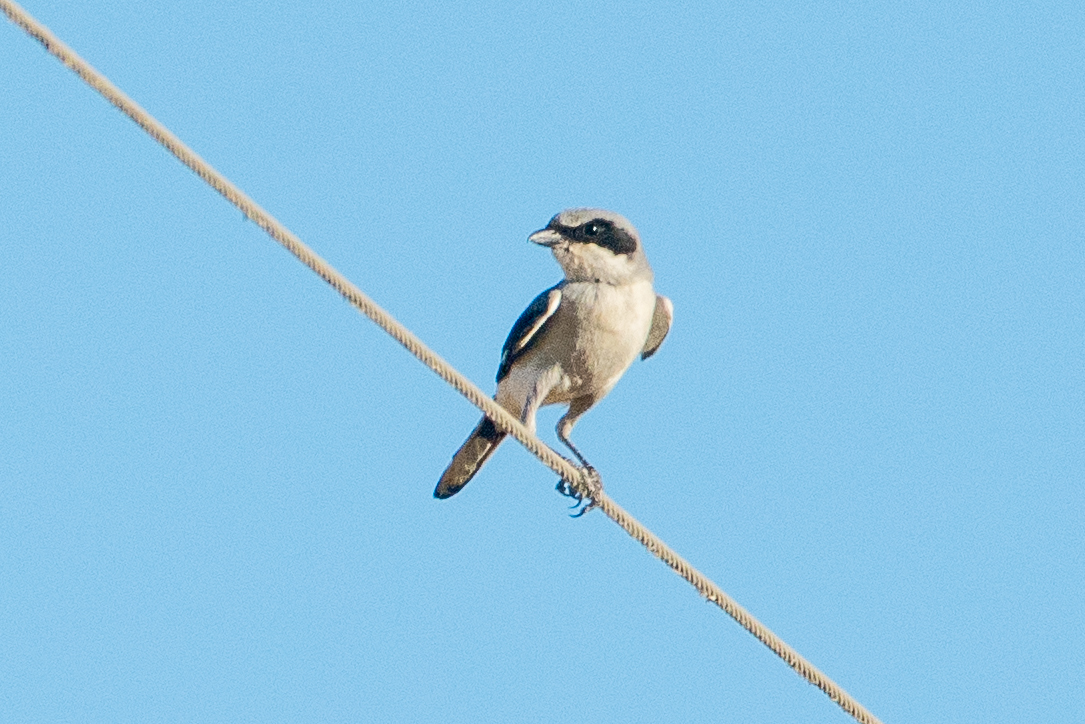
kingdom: Animalia
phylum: Chordata
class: Aves
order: Passeriformes
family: Laniidae
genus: Lanius
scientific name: Lanius ludovicianus
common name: Loggerhead shrike
